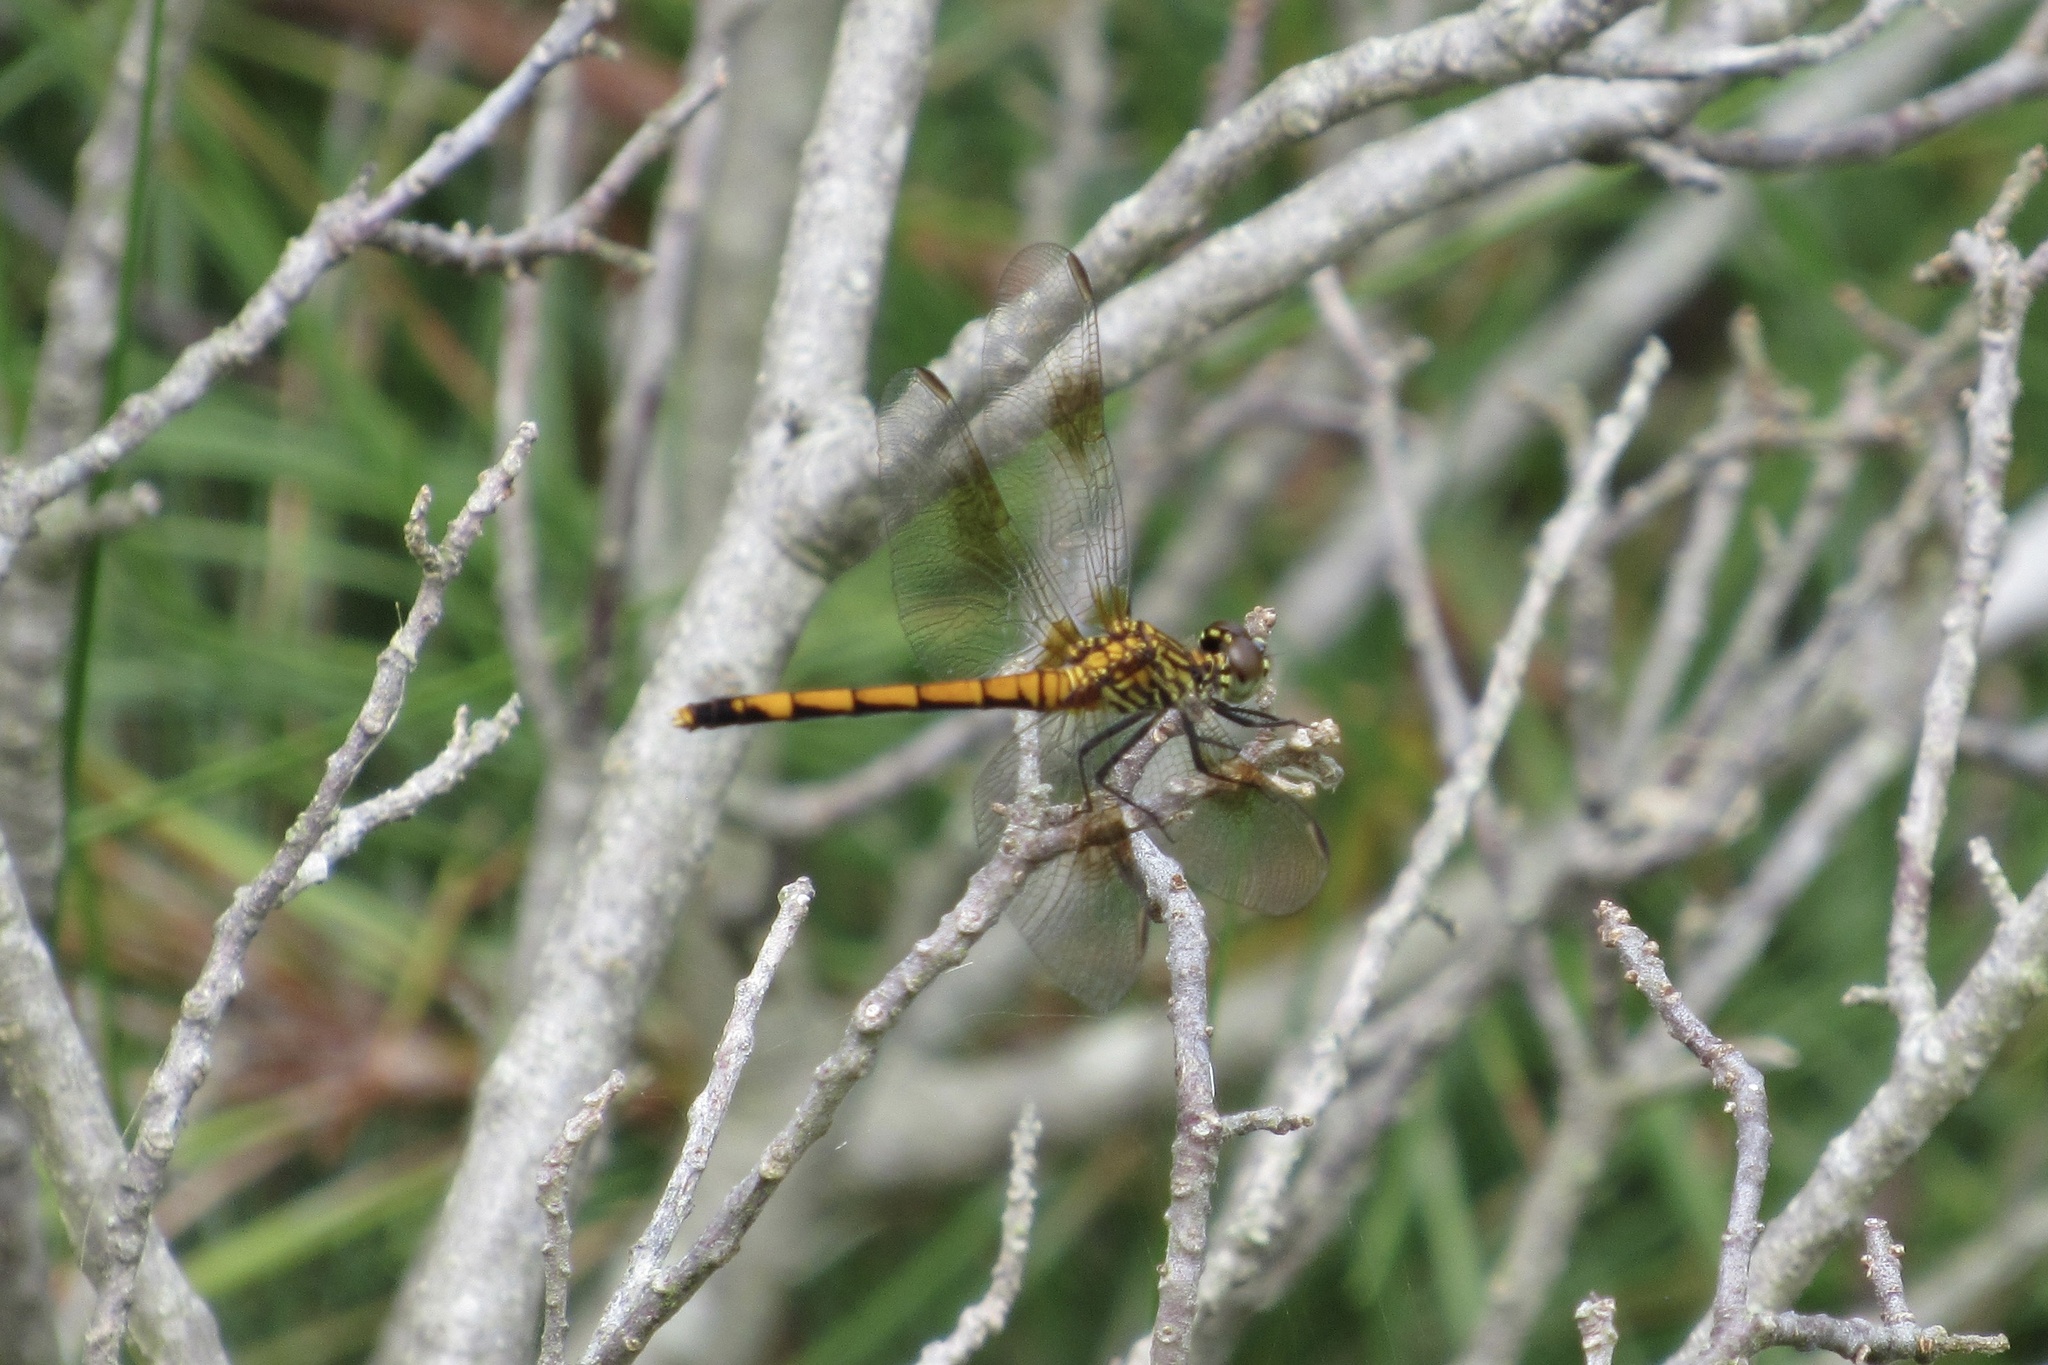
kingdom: Animalia
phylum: Arthropoda
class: Insecta
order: Odonata
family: Libellulidae
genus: Erythrodiplax
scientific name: Erythrodiplax berenice
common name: Seaside dragonlet
